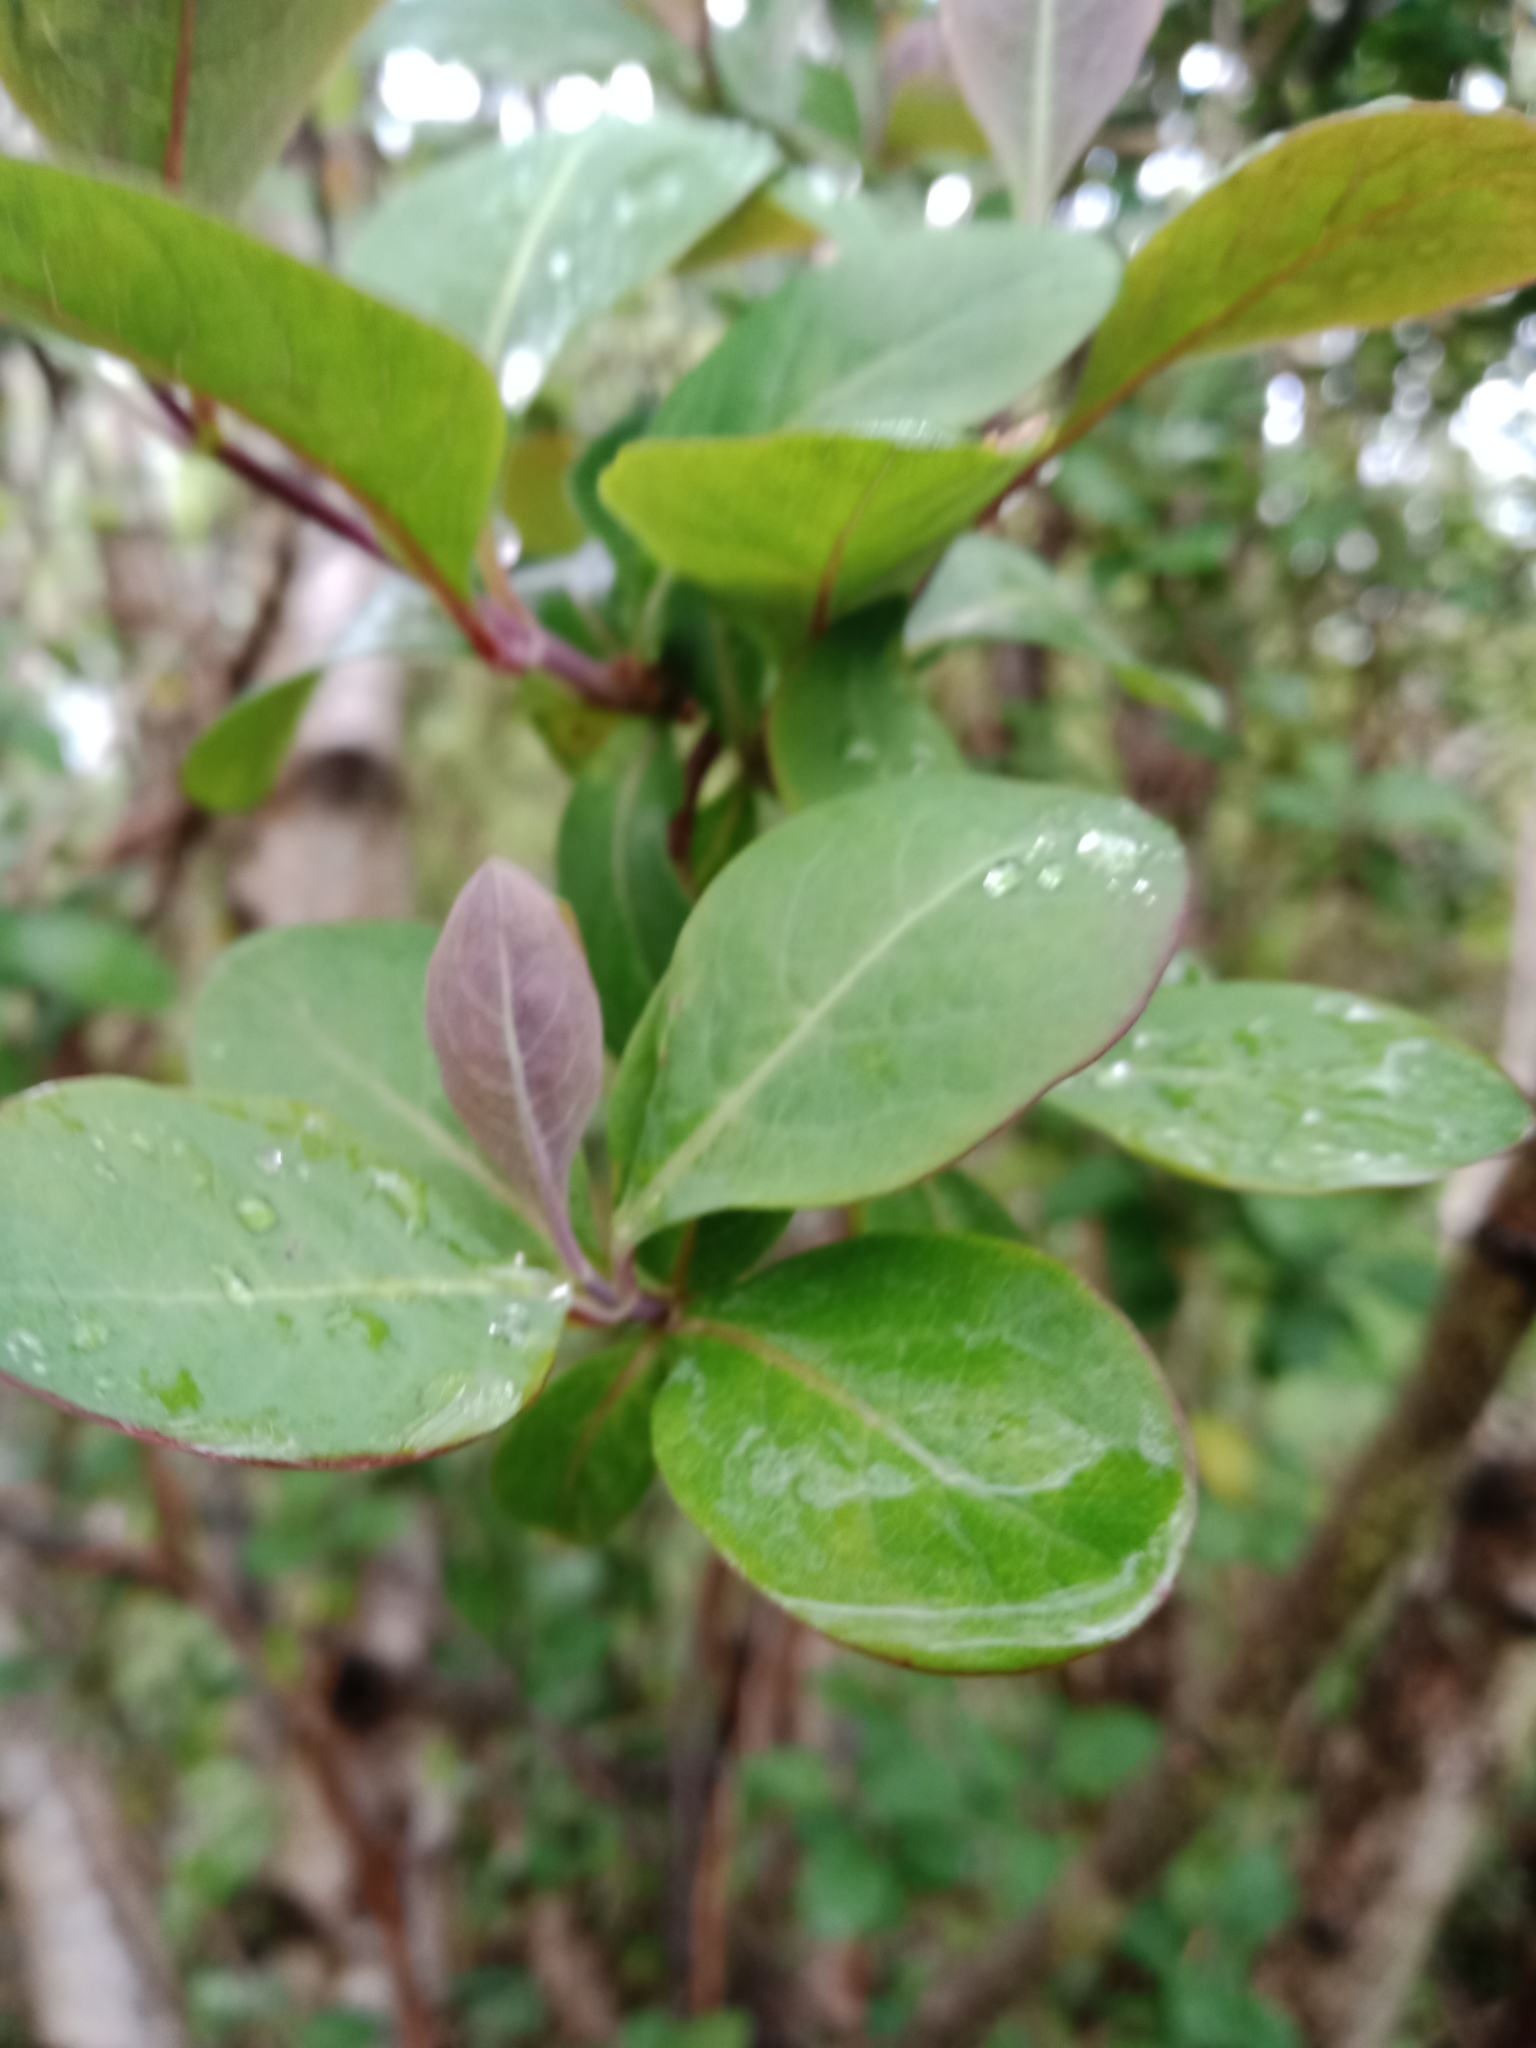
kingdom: Plantae
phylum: Tracheophyta
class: Magnoliopsida
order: Dipsacales
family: Caprifoliaceae
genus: Lonicera
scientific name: Lonicera periclymenum
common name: European honeysuckle
